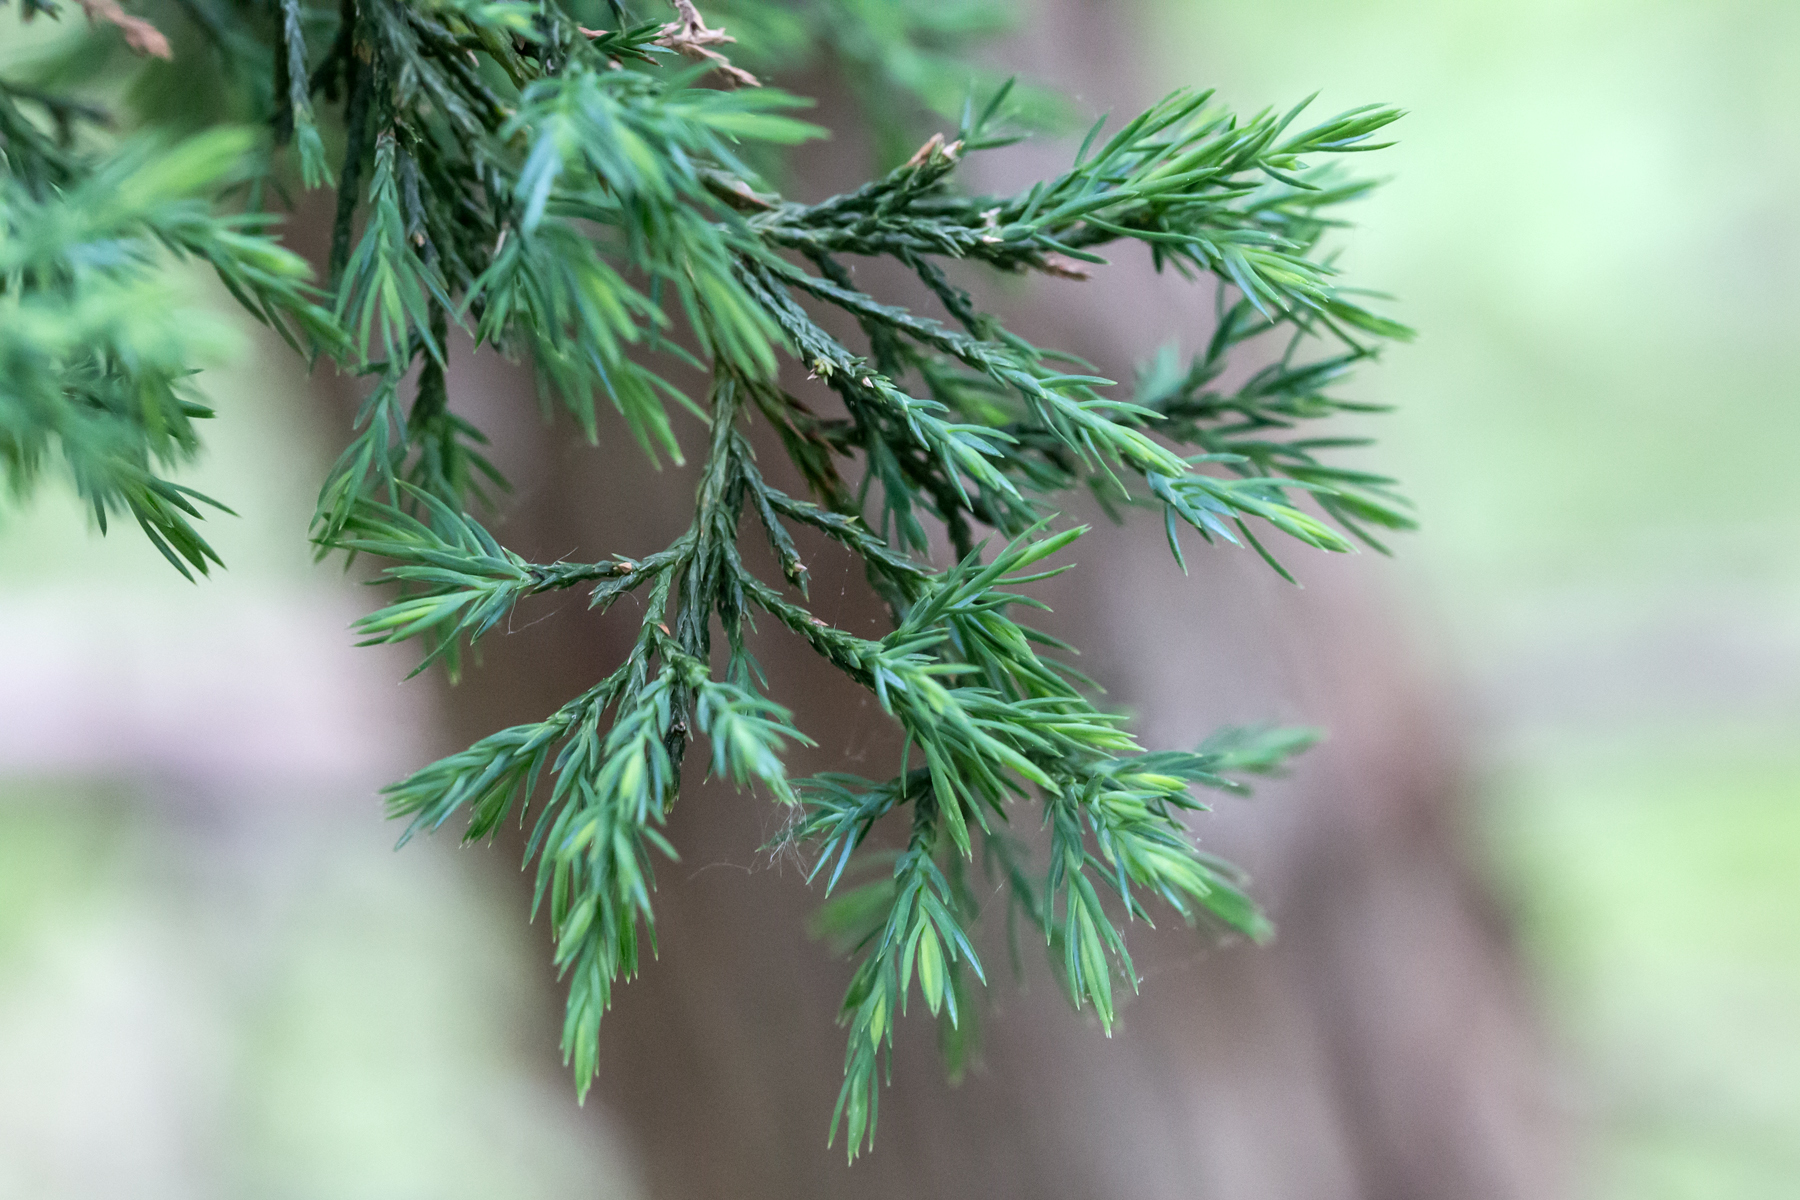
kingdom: Plantae
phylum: Tracheophyta
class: Pinopsida
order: Pinales
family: Cupressaceae
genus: Juniperus
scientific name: Juniperus virginiana
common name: Red juniper
